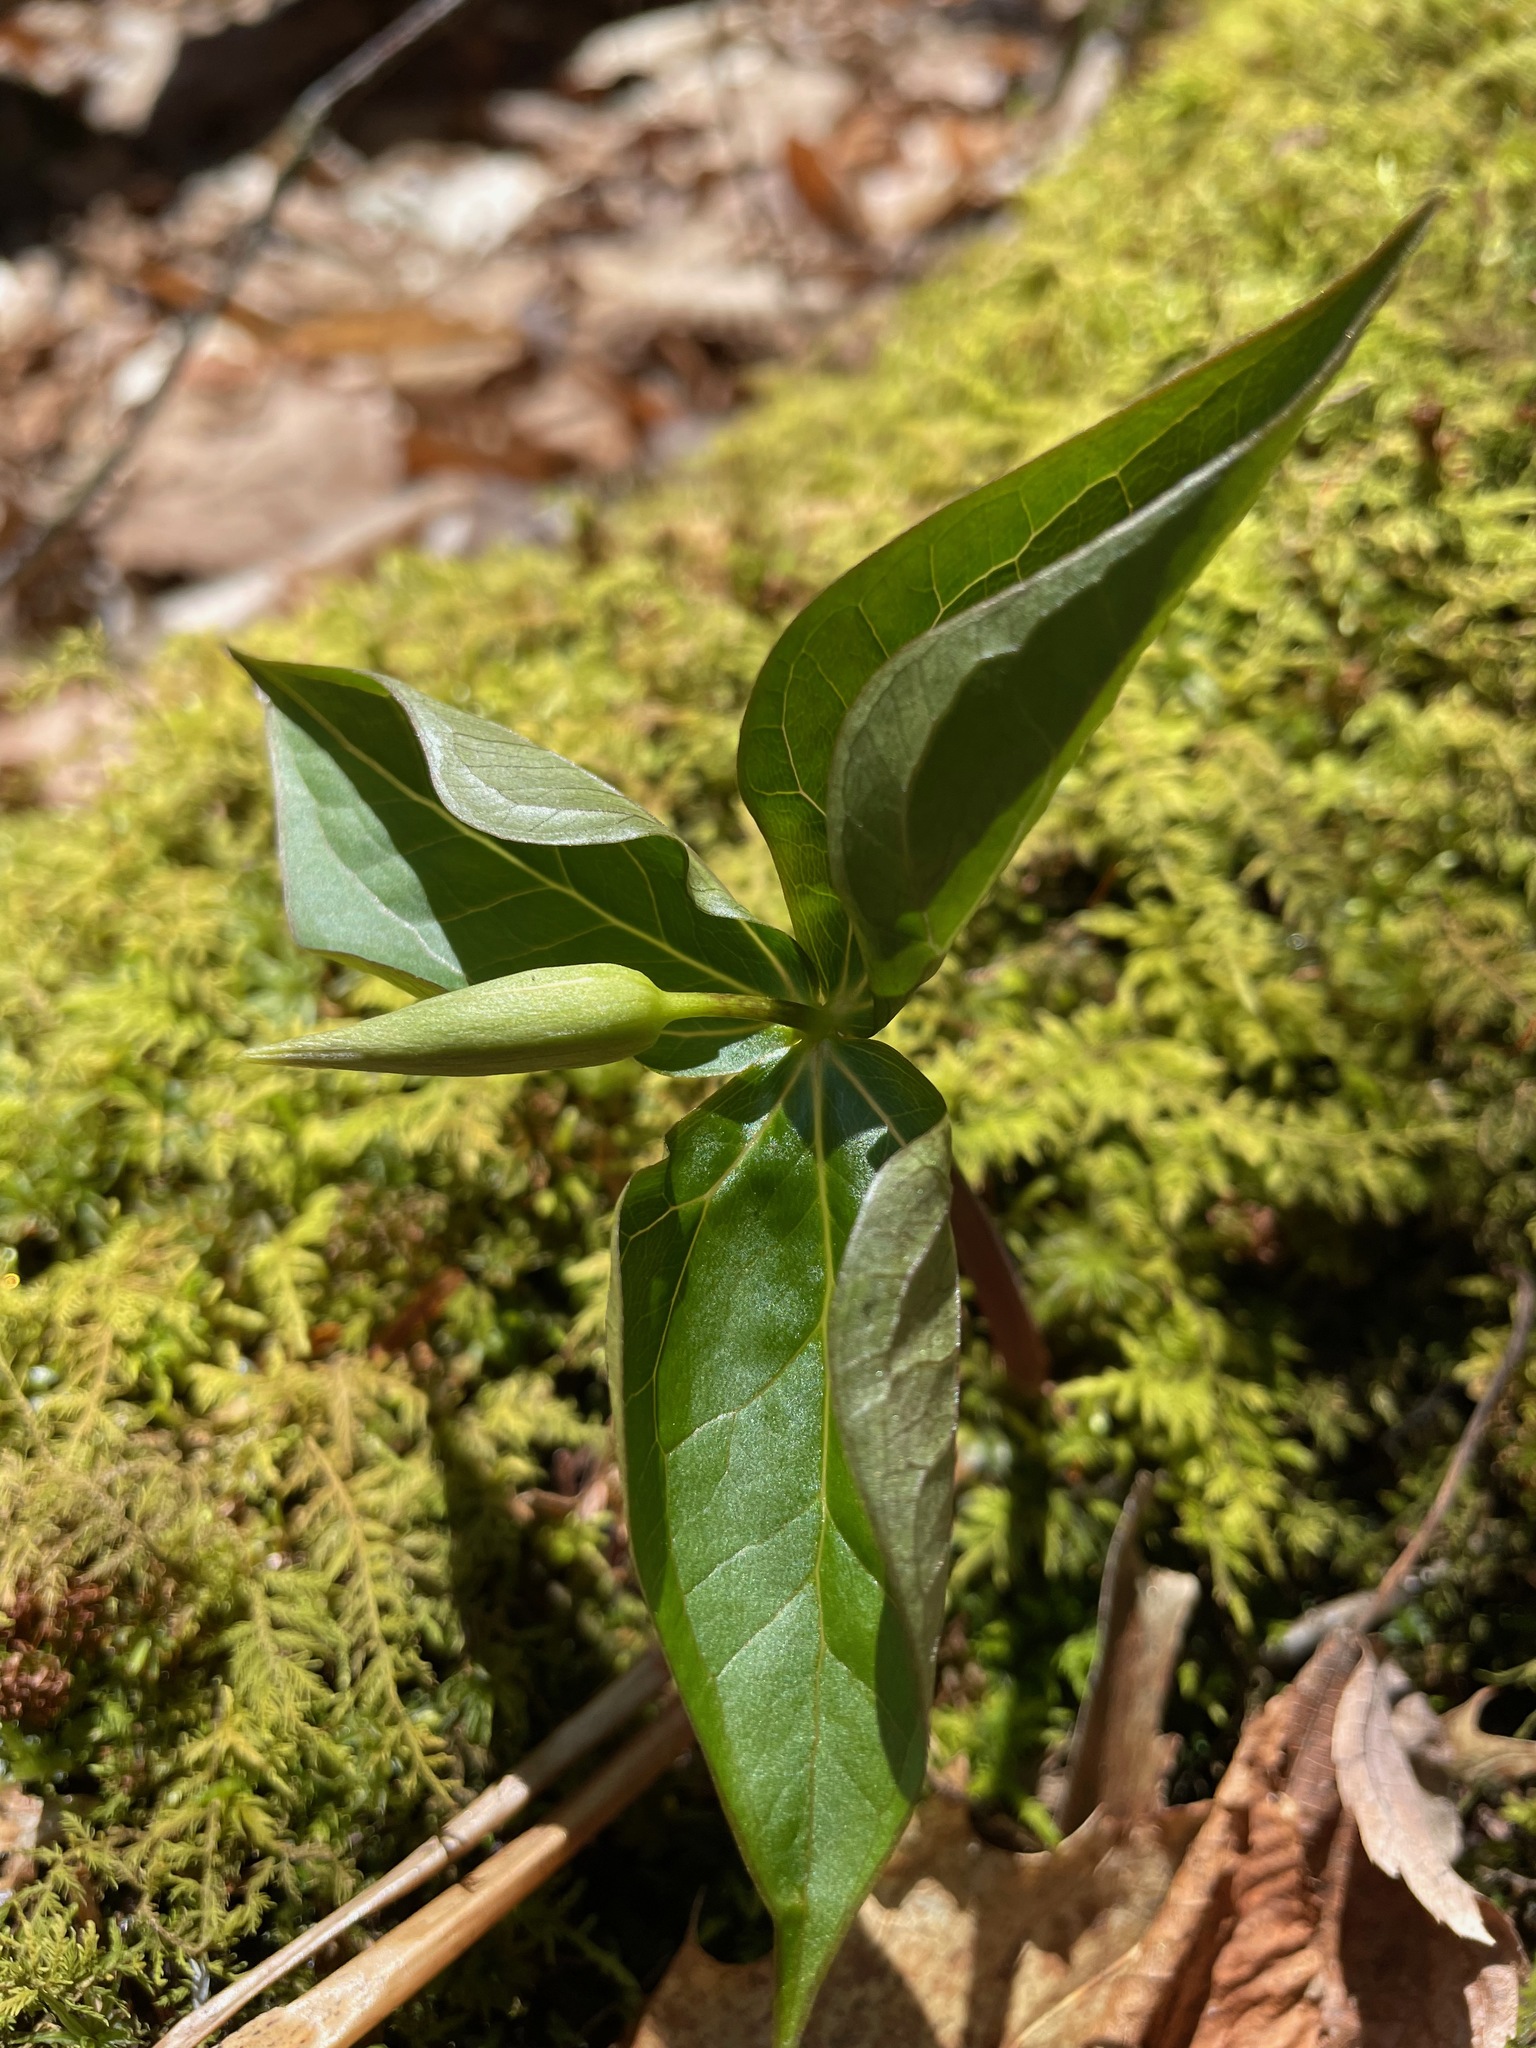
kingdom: Plantae
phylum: Tracheophyta
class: Liliopsida
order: Liliales
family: Melanthiaceae
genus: Trillium
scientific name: Trillium erectum
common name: Purple trillium
